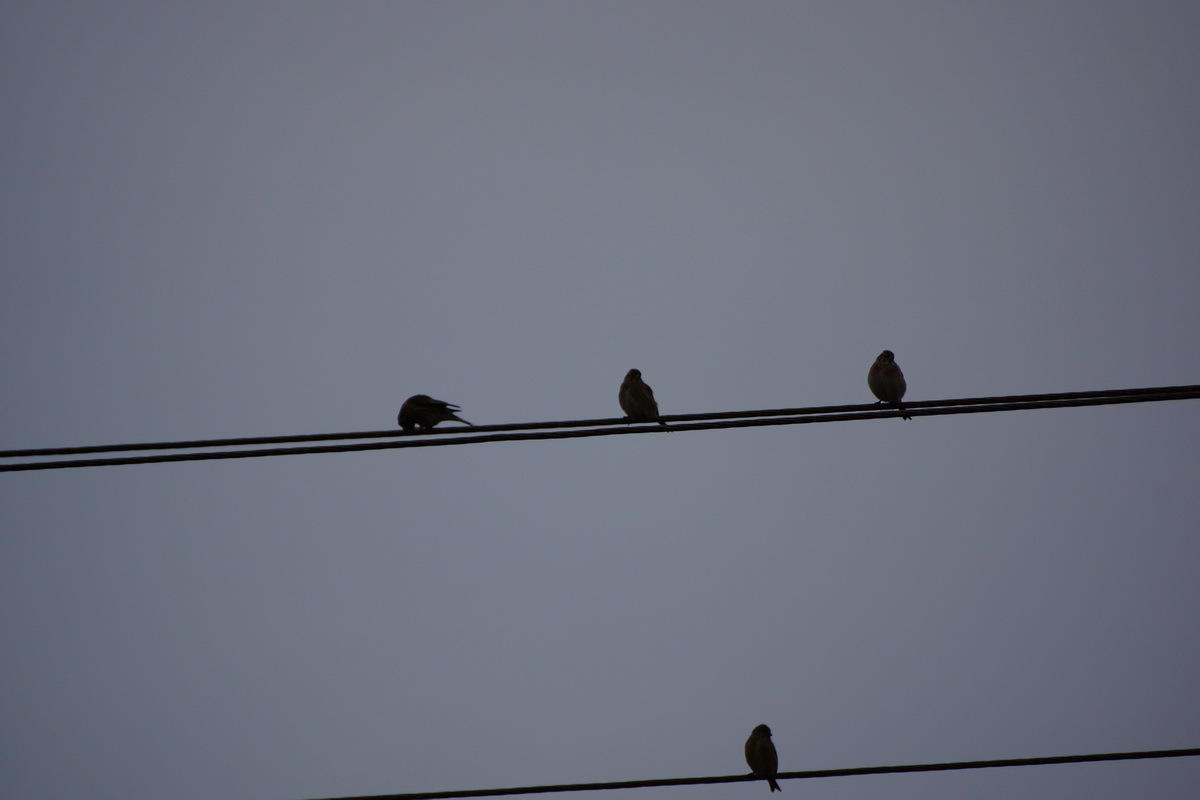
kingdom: Animalia
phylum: Chordata
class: Aves
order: Passeriformes
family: Fringillidae
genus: Linaria
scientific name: Linaria cannabina
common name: Common linnet
